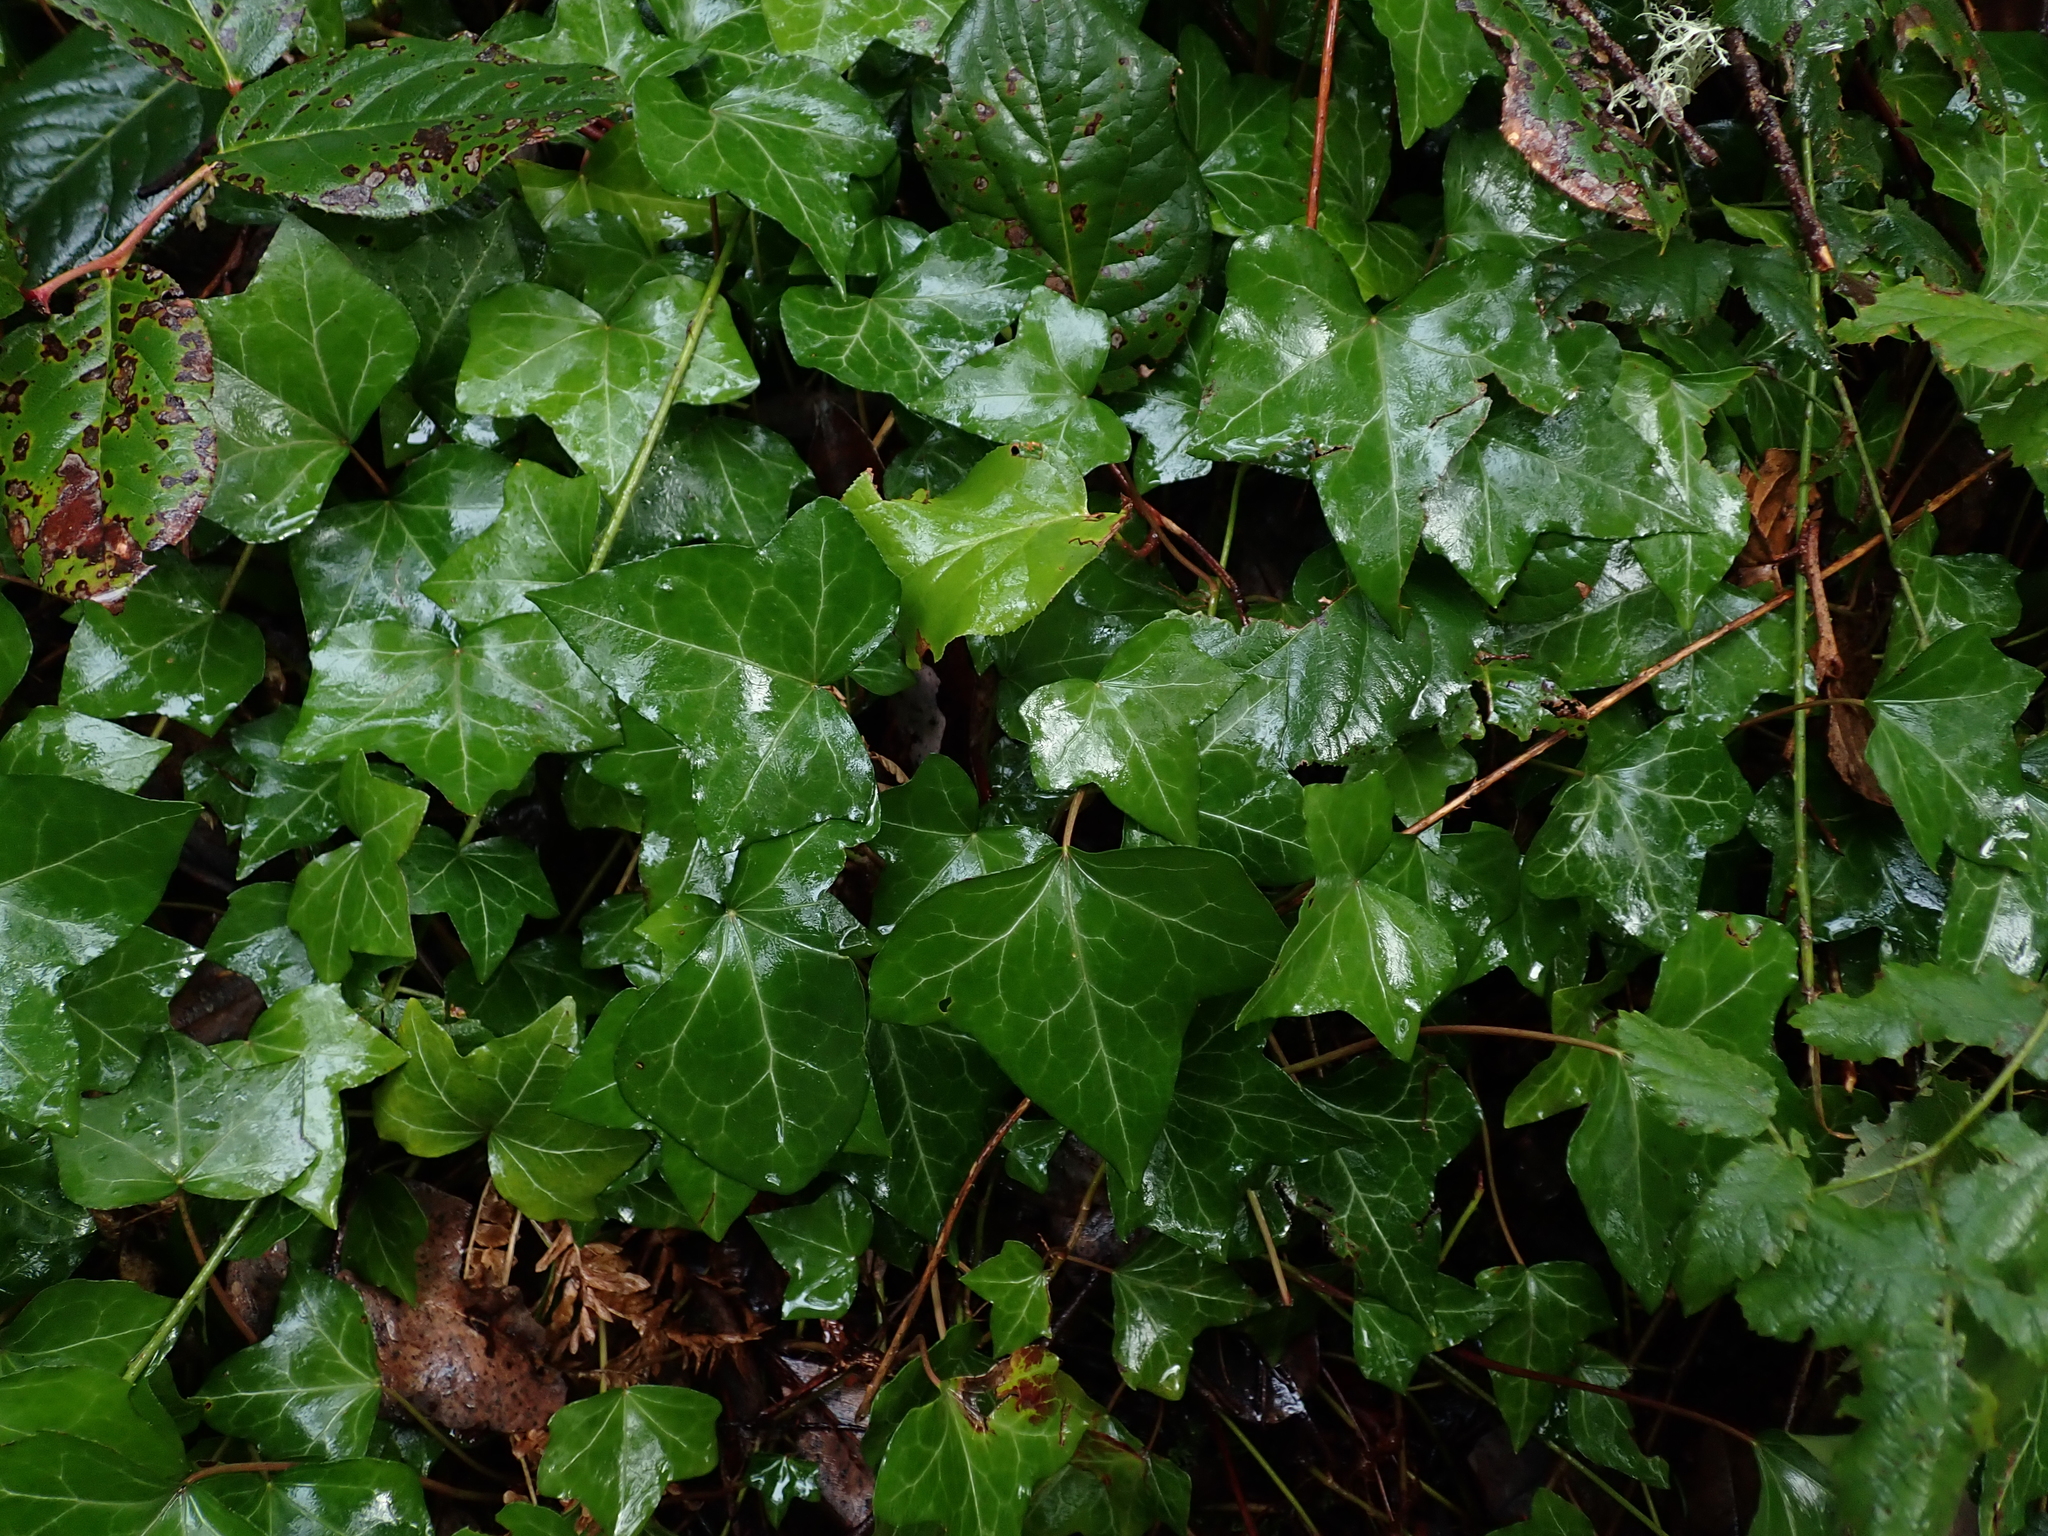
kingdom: Plantae
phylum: Tracheophyta
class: Magnoliopsida
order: Apiales
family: Araliaceae
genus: Hedera
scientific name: Hedera helix
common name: Ivy
